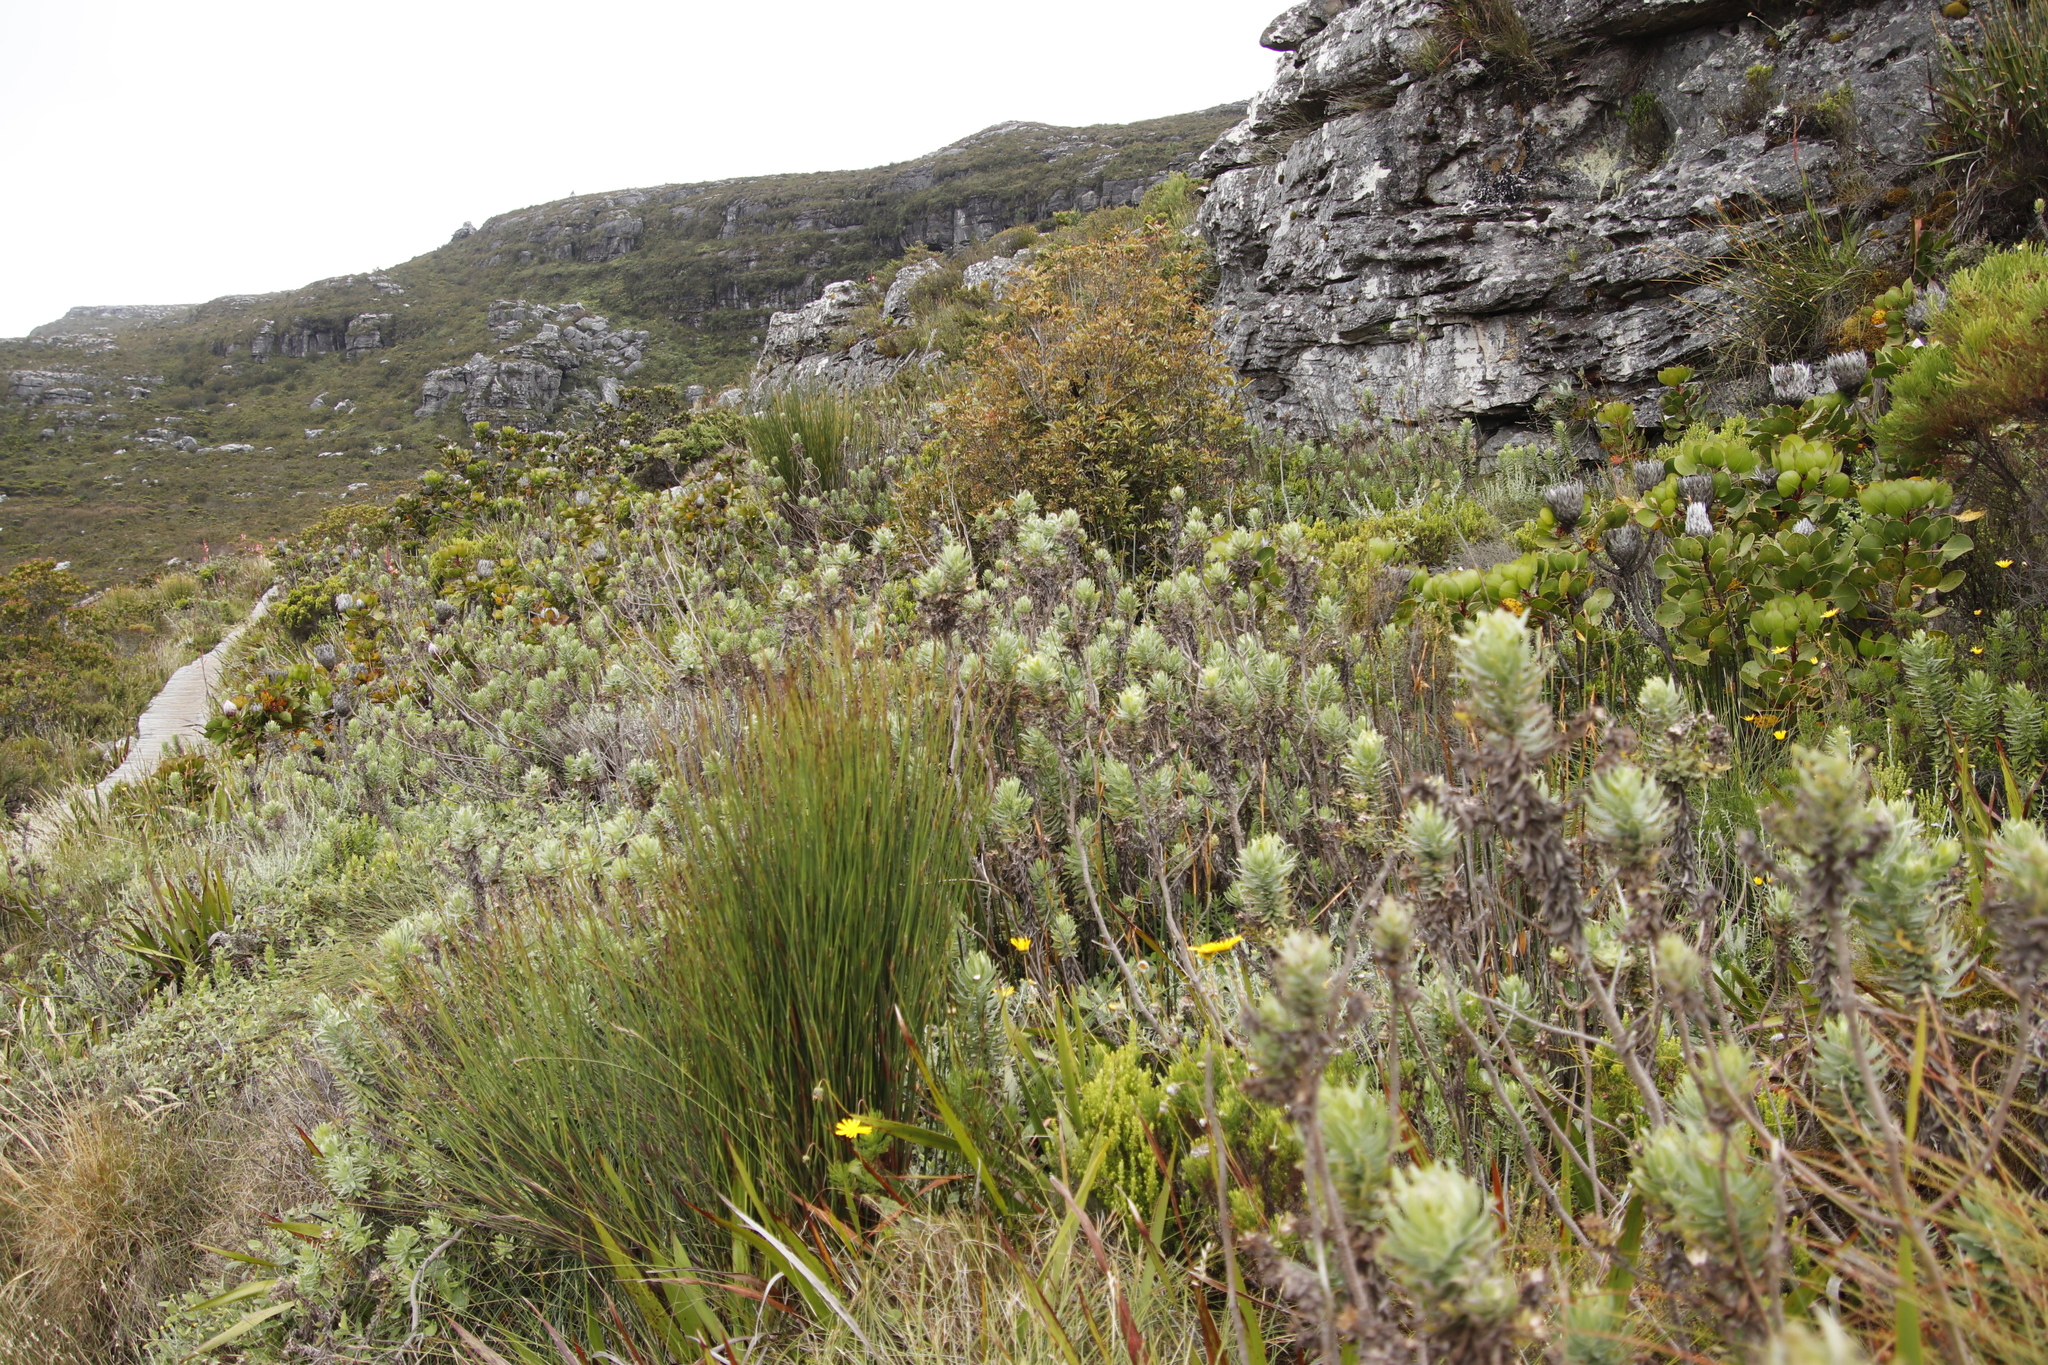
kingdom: Plantae
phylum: Tracheophyta
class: Magnoliopsida
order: Asterales
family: Asteraceae
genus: Osmitopsis
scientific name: Osmitopsis asteriscoides
